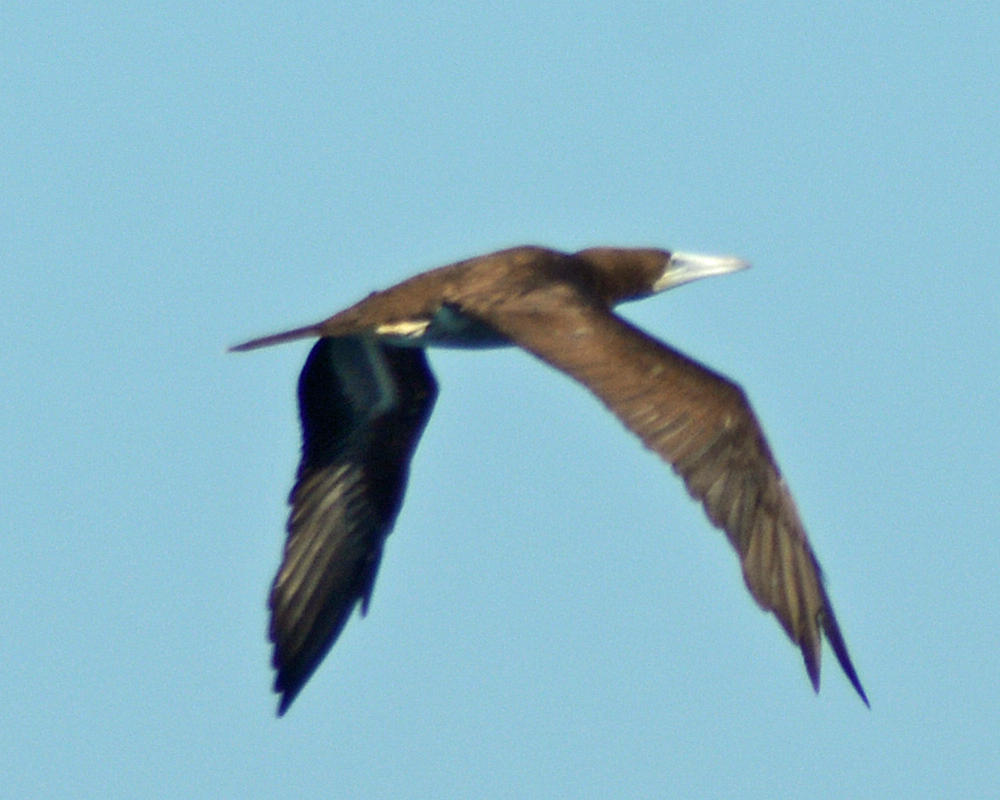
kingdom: Animalia
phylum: Chordata
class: Aves
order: Suliformes
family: Sulidae
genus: Sula
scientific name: Sula leucogaster
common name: Brown booby
